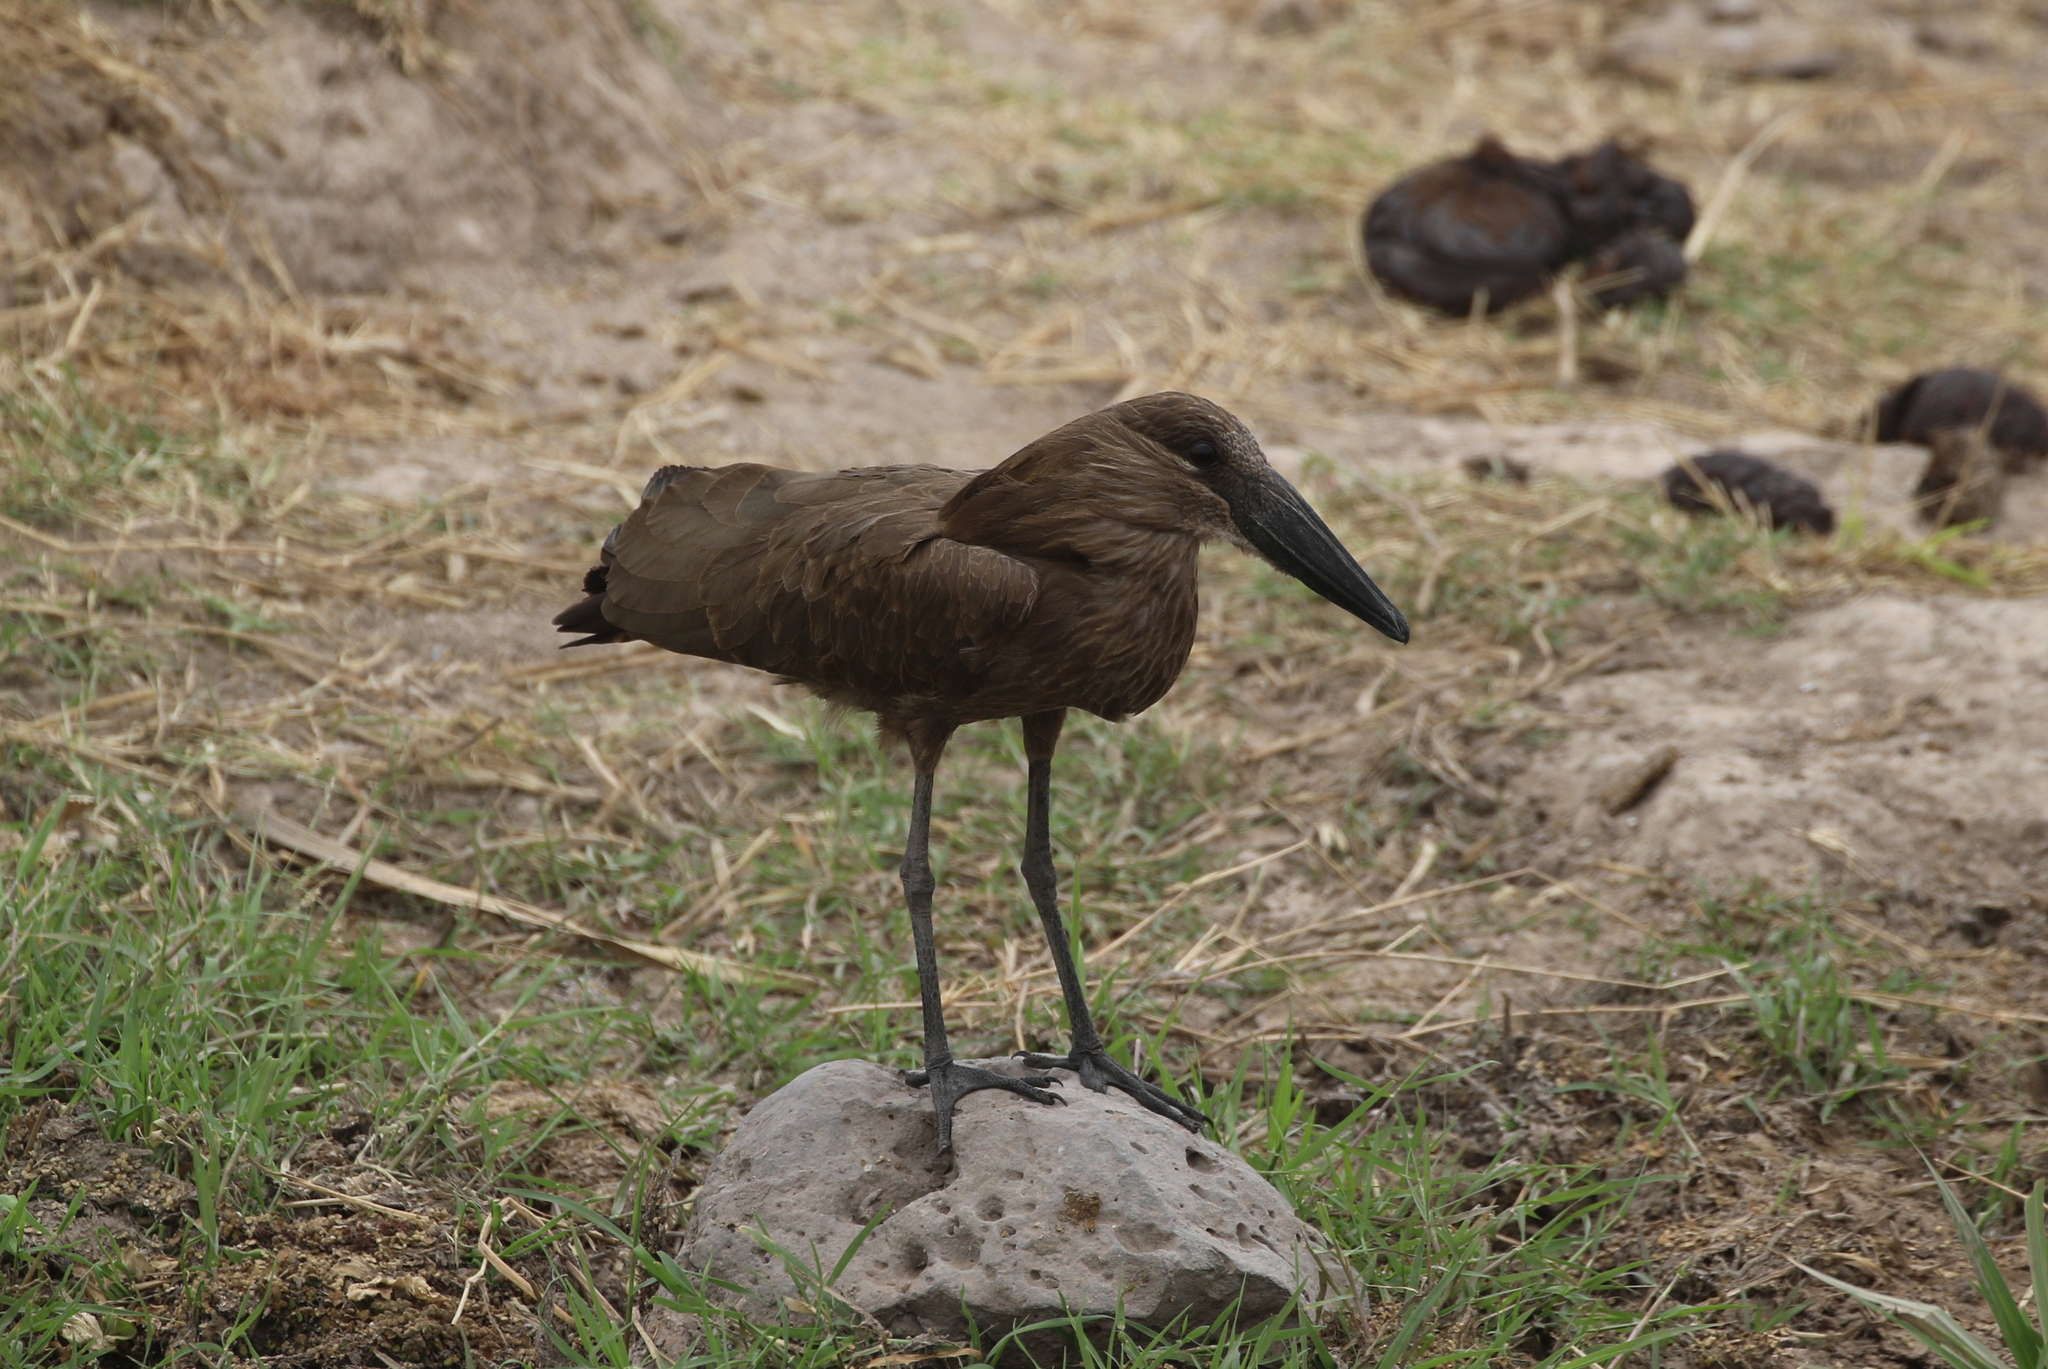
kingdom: Animalia
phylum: Chordata
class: Aves
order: Pelecaniformes
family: Scopidae
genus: Scopus
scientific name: Scopus umbretta
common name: Hamerkop
